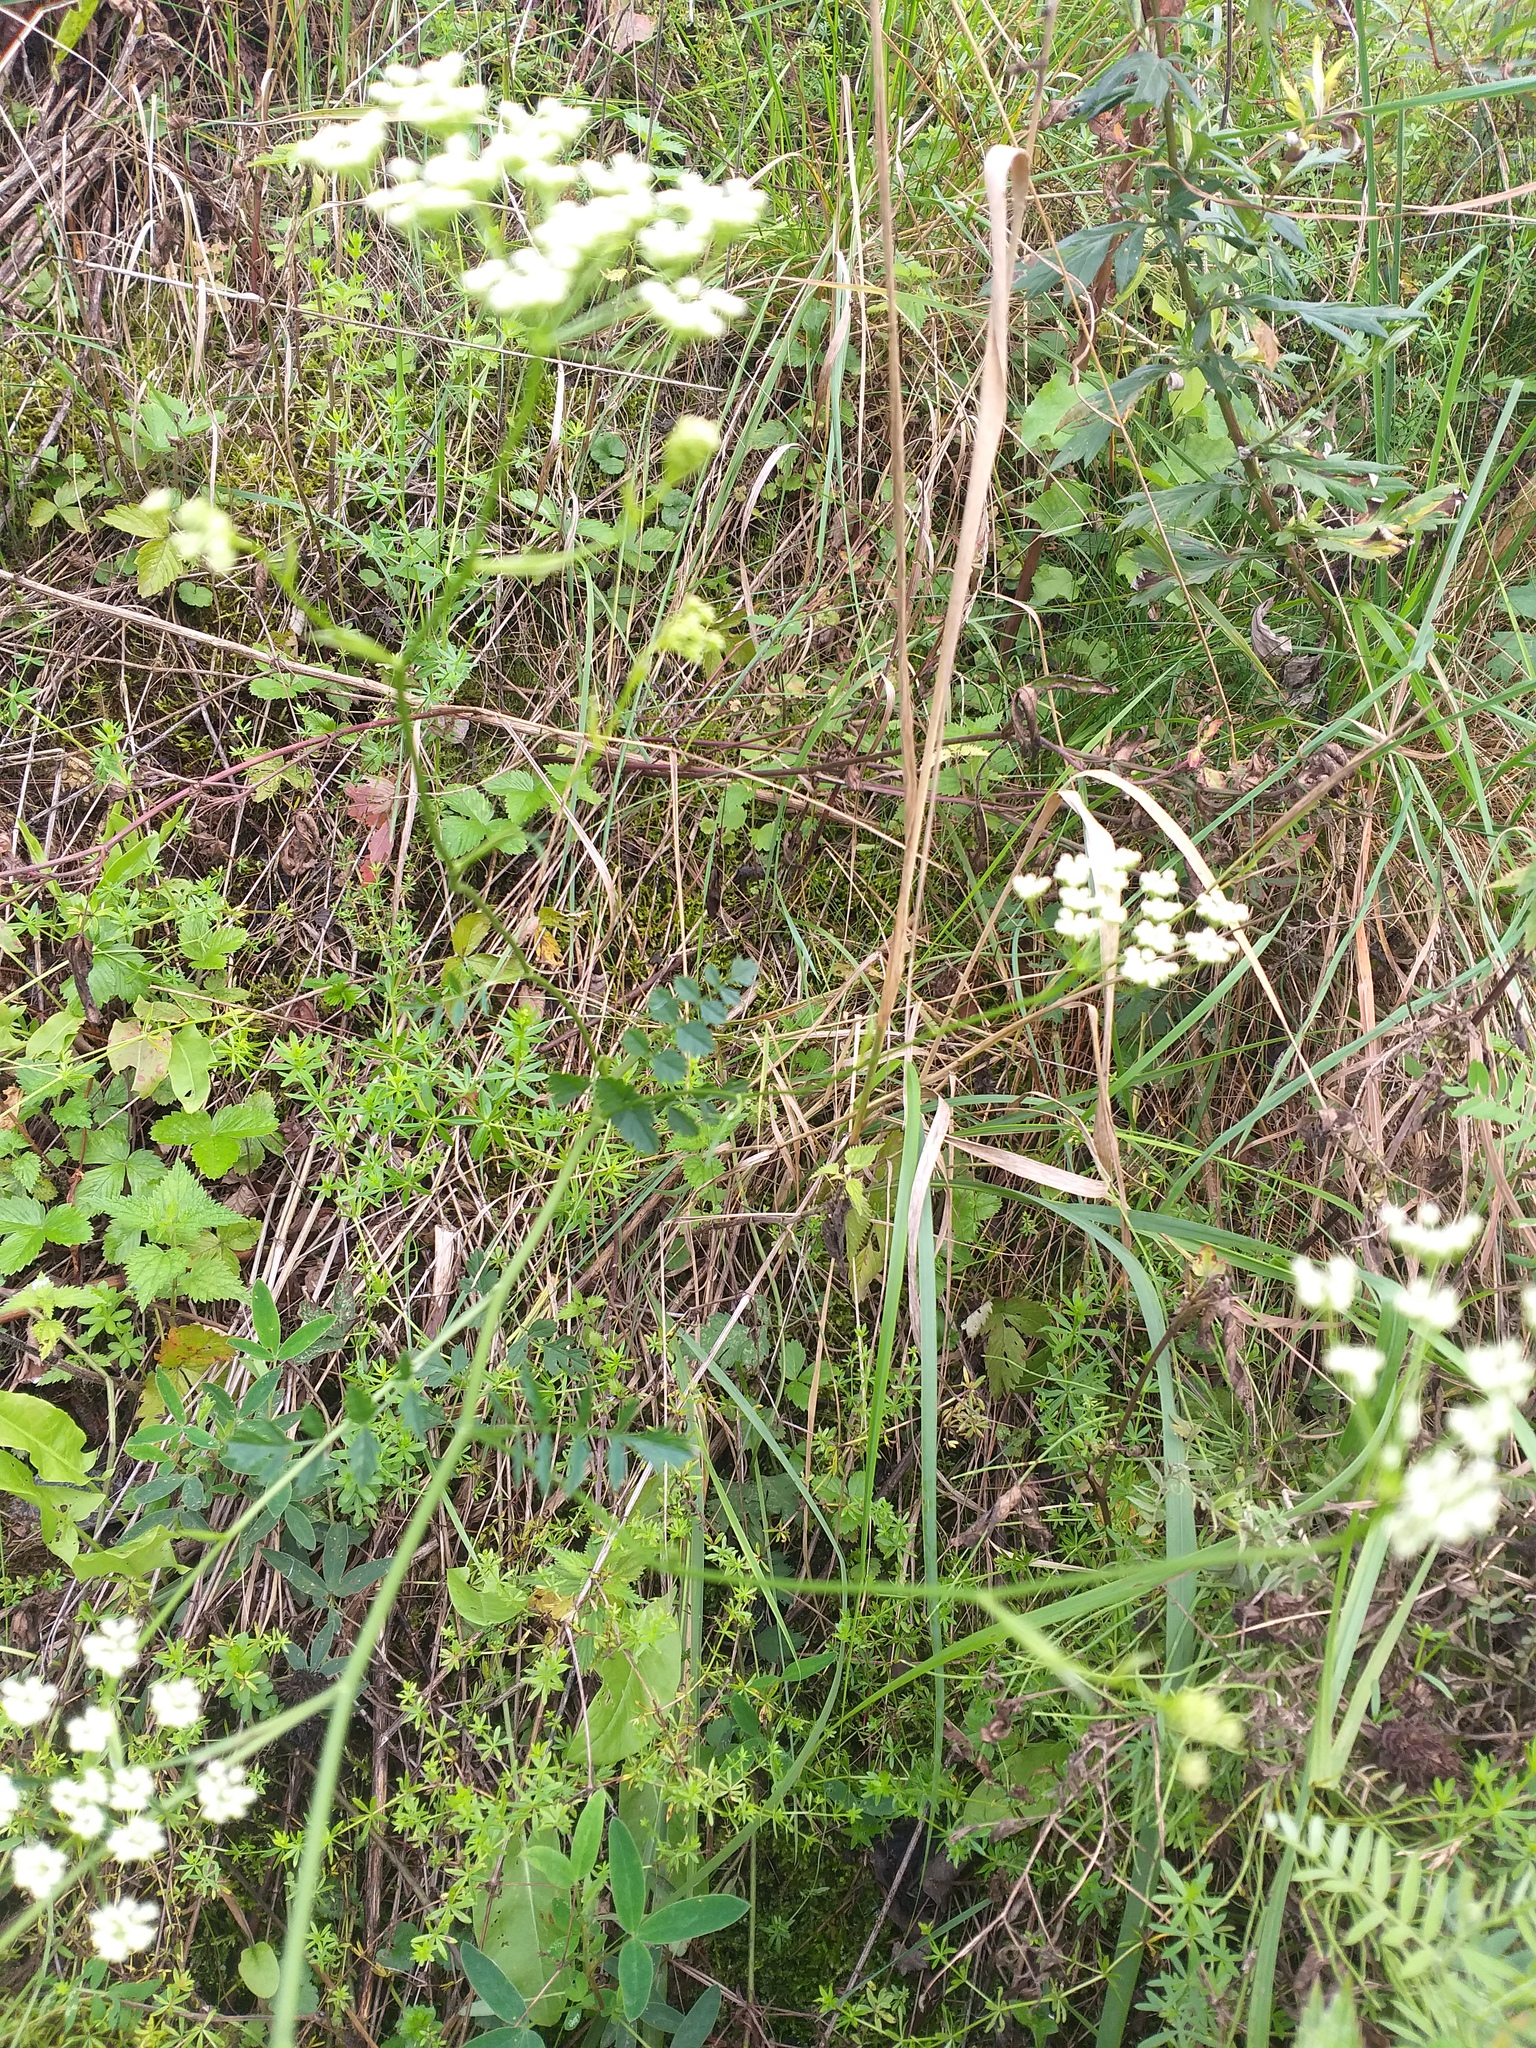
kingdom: Plantae
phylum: Tracheophyta
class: Magnoliopsida
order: Apiales
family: Apiaceae
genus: Pimpinella
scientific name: Pimpinella saxifraga
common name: Burnet-saxifrage
